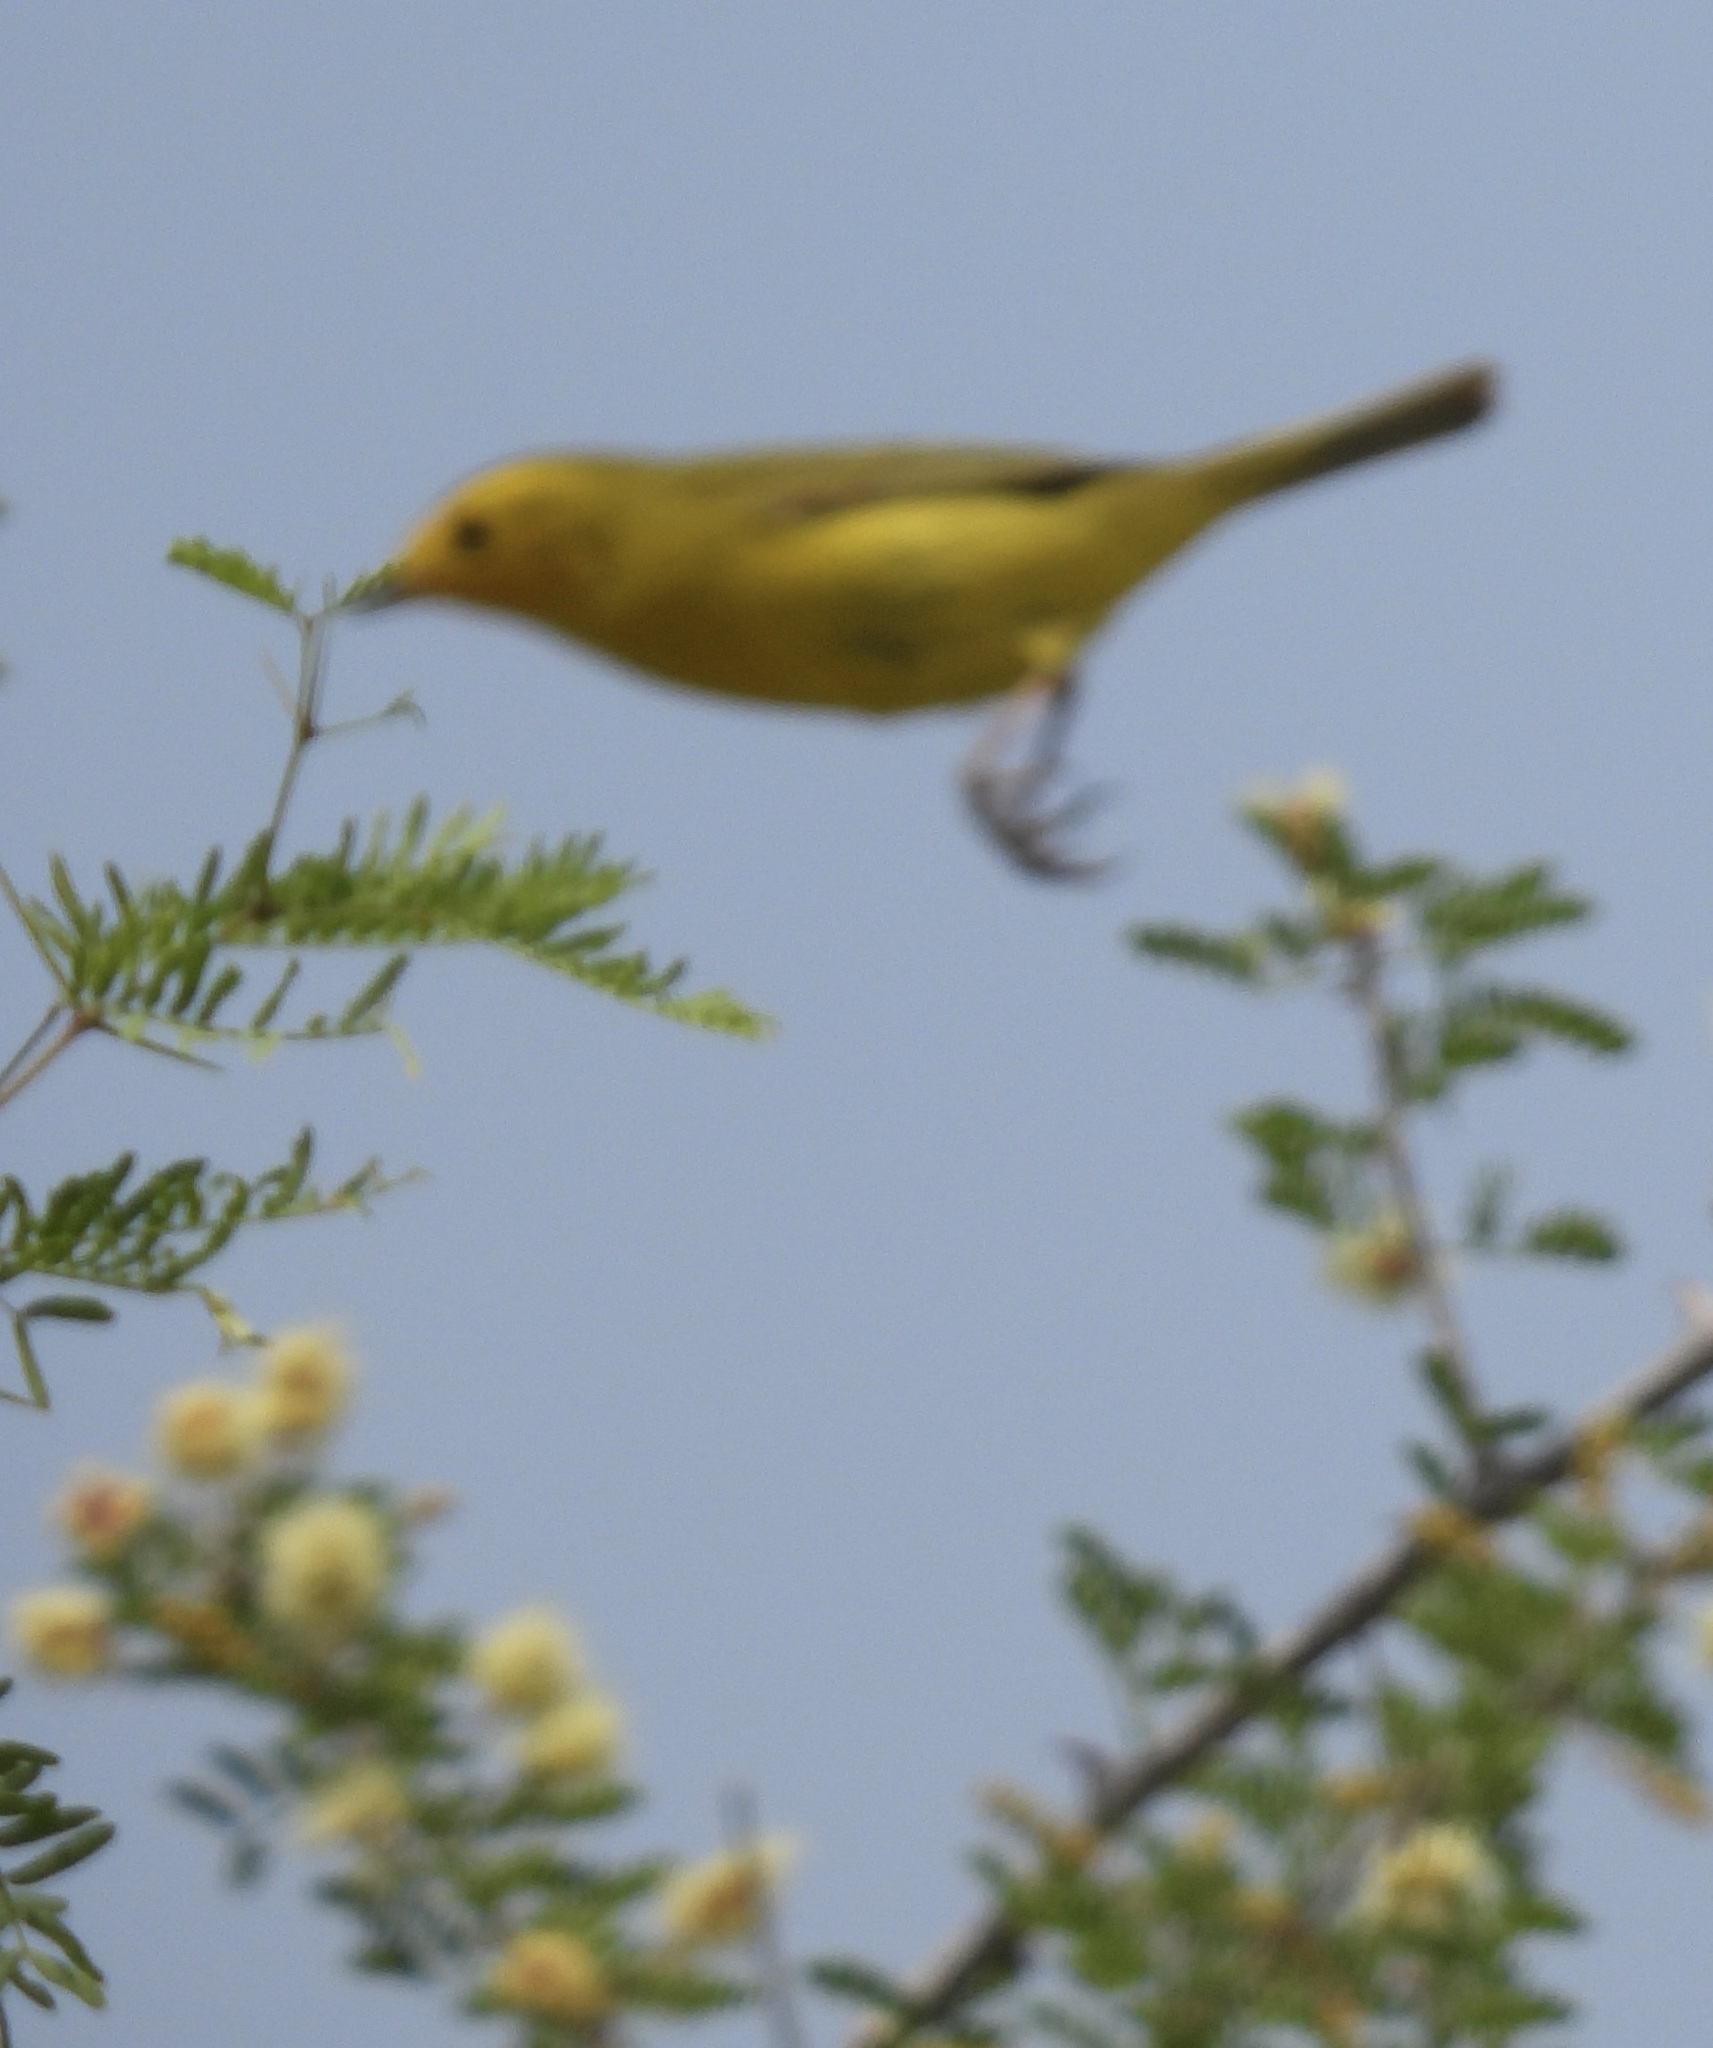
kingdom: Animalia
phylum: Chordata
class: Aves
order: Passeriformes
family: Parulidae
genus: Setophaga
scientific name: Setophaga petechia
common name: Yellow warbler
